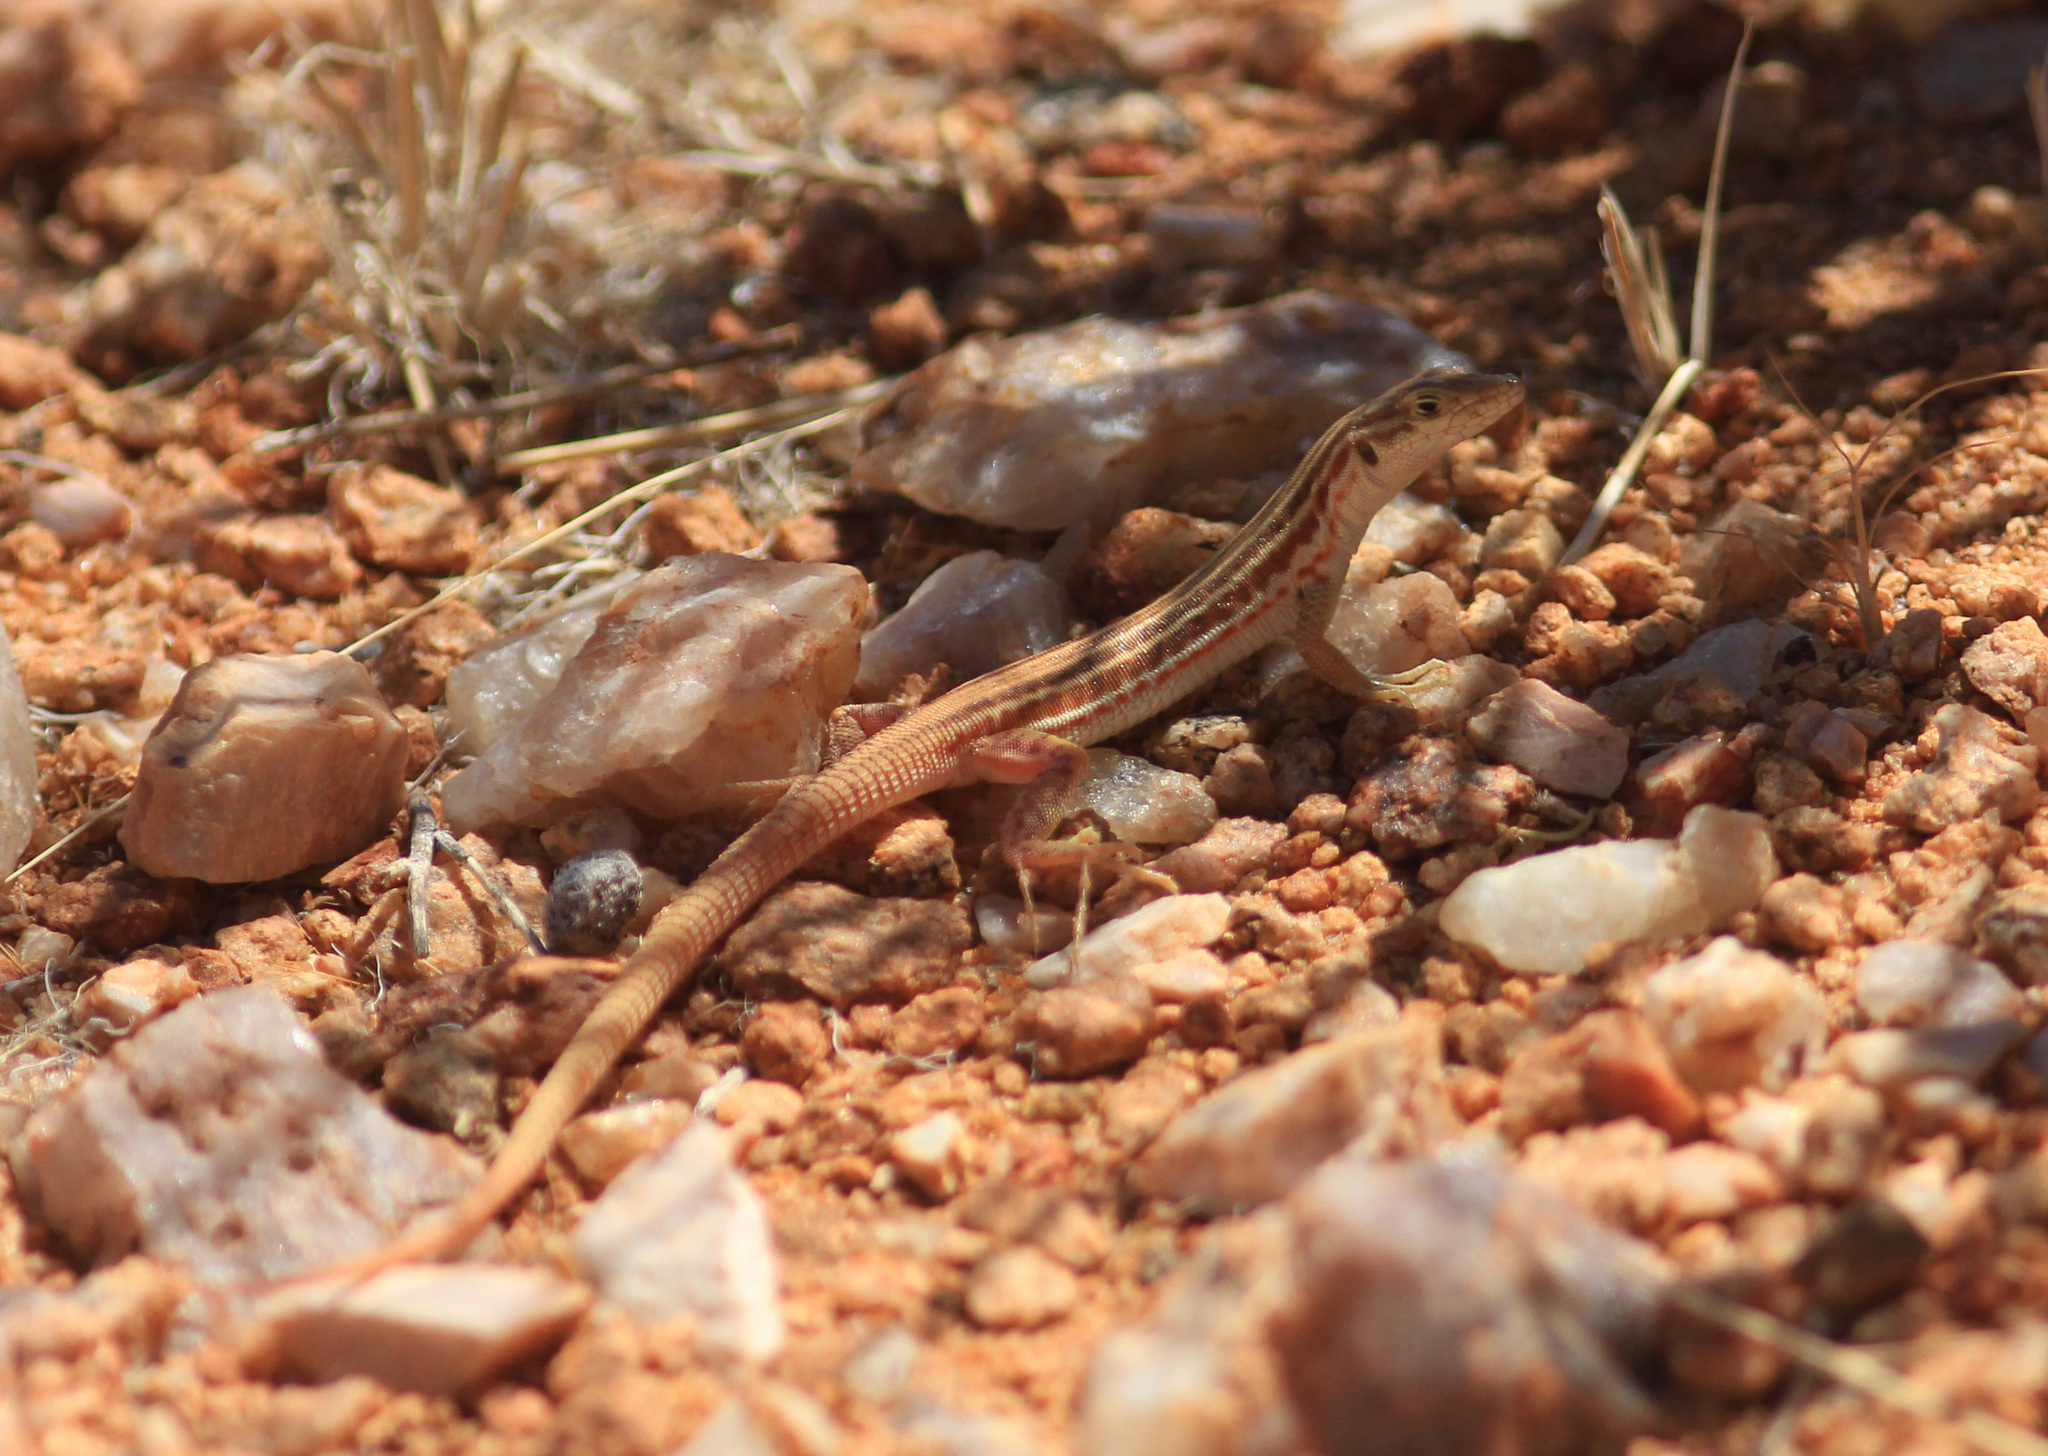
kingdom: Animalia
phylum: Chordata
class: Squamata
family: Lacertidae
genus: Pedioplanis
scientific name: Pedioplanis namaquensis
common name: Namaqua sand lizard
